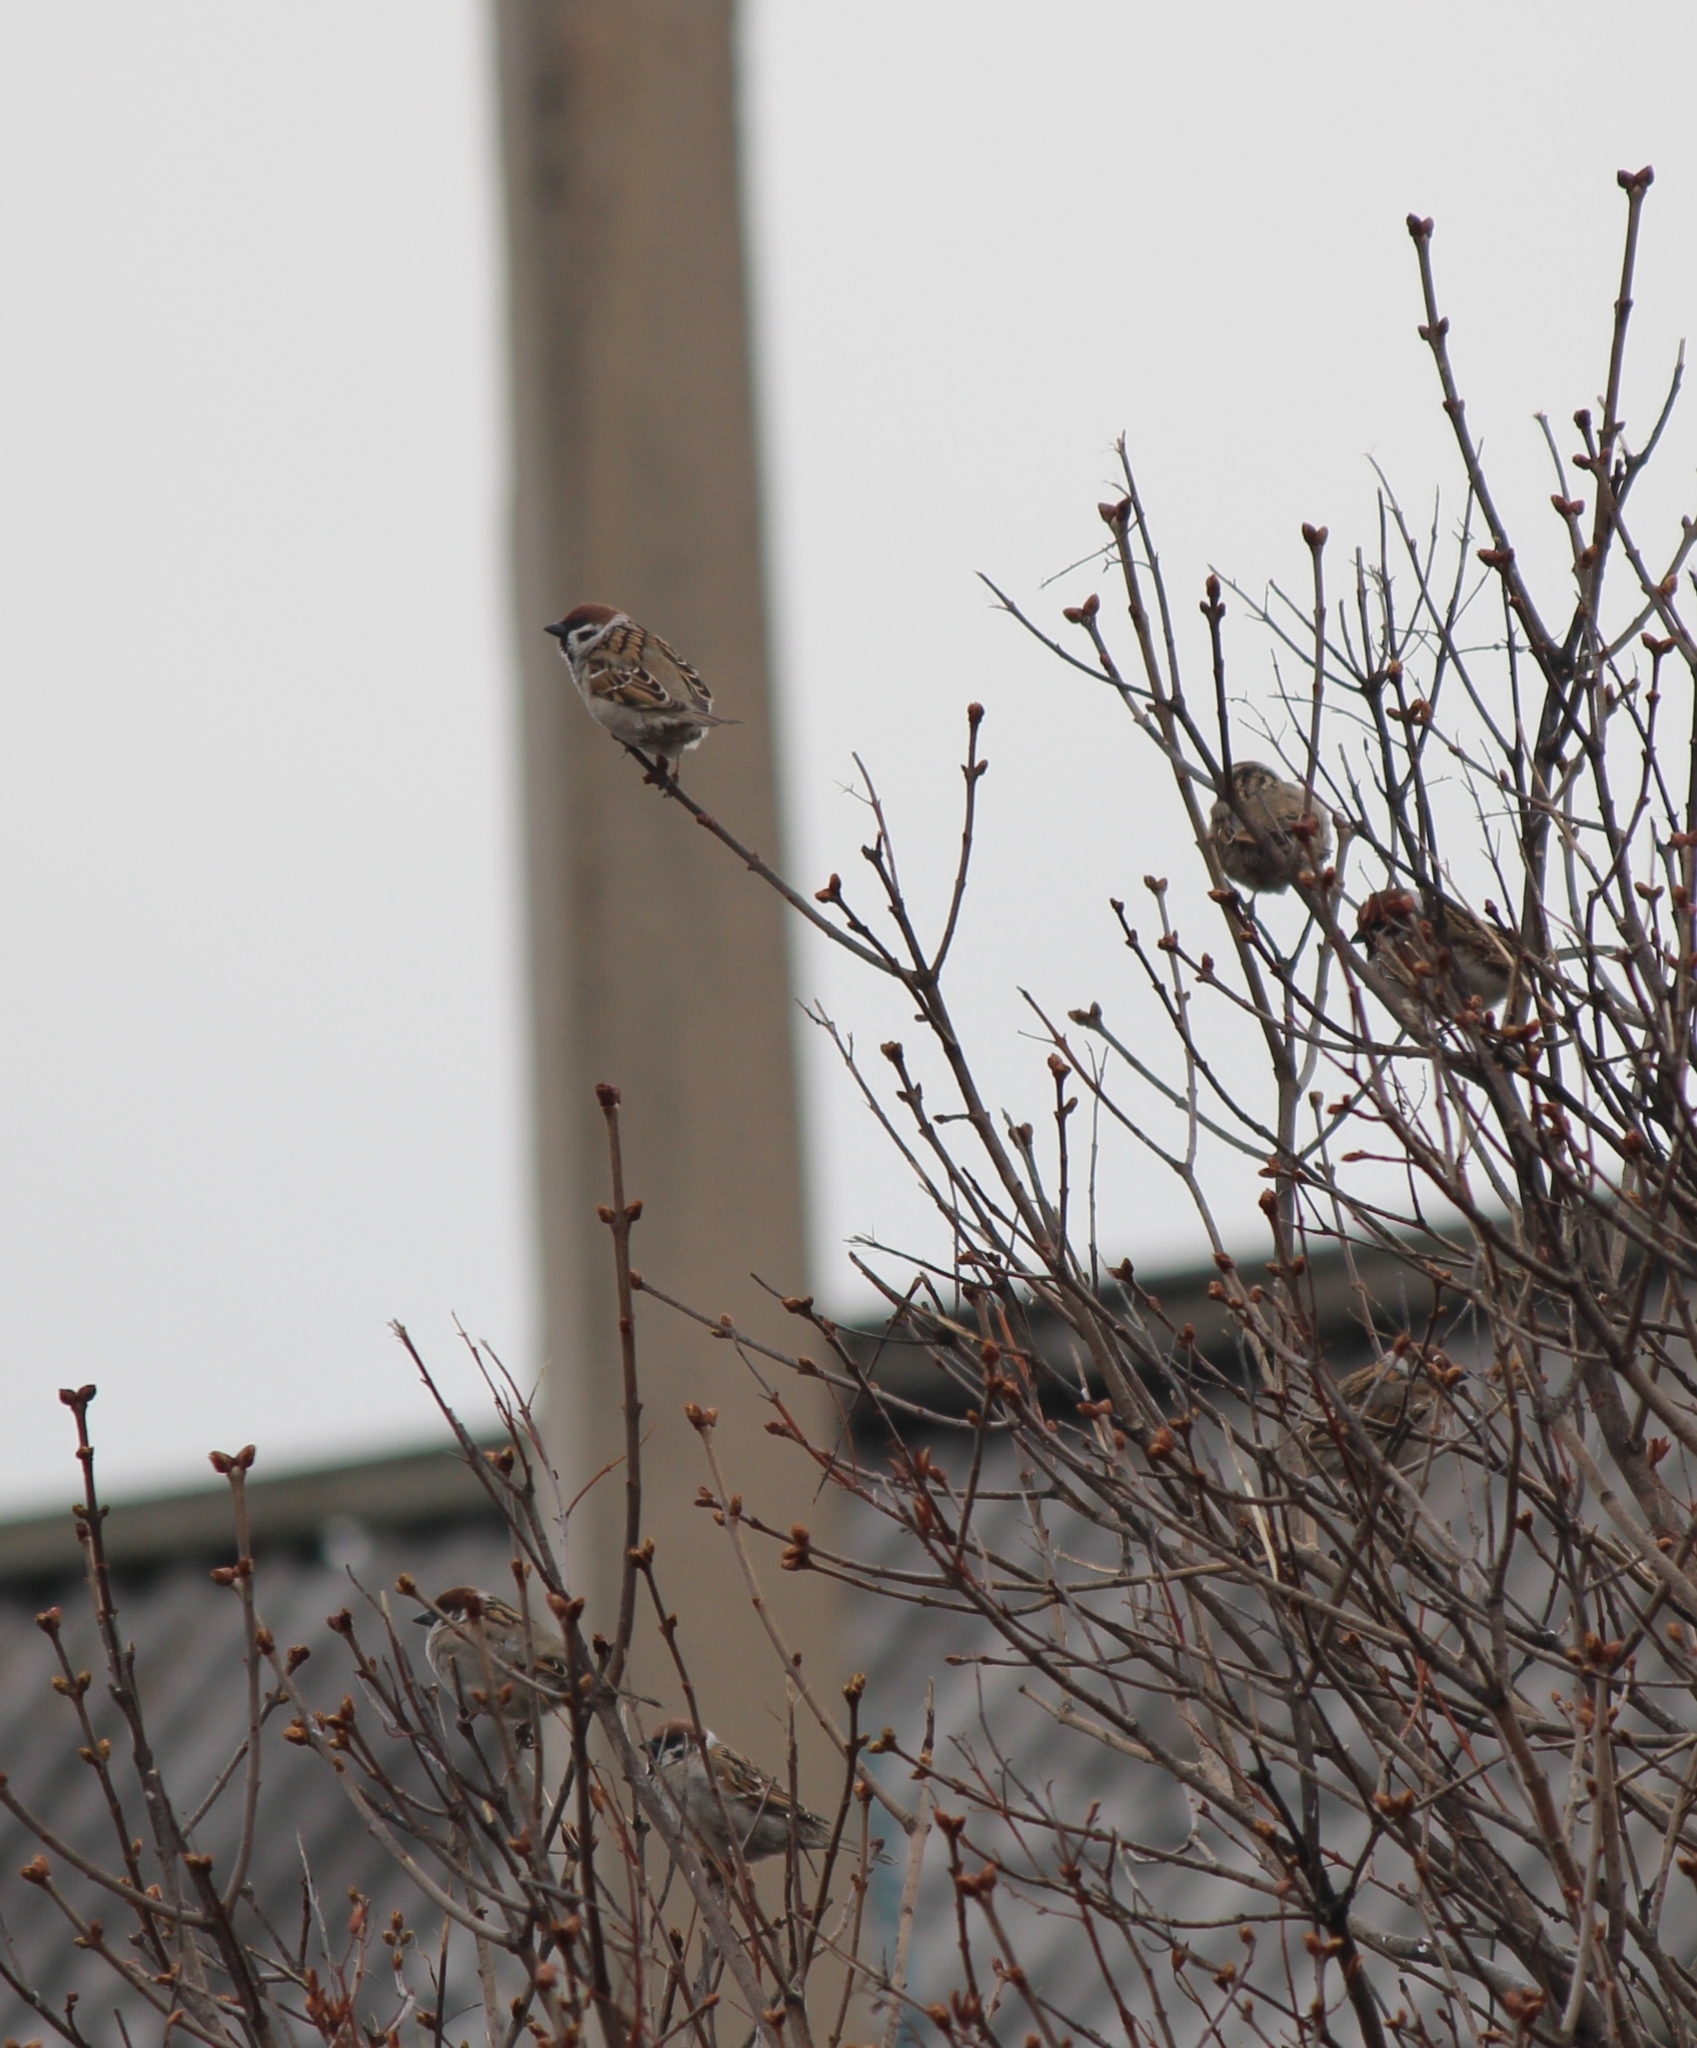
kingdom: Animalia
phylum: Chordata
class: Aves
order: Passeriformes
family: Passeridae
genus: Passer
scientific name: Passer montanus
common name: Eurasian tree sparrow
